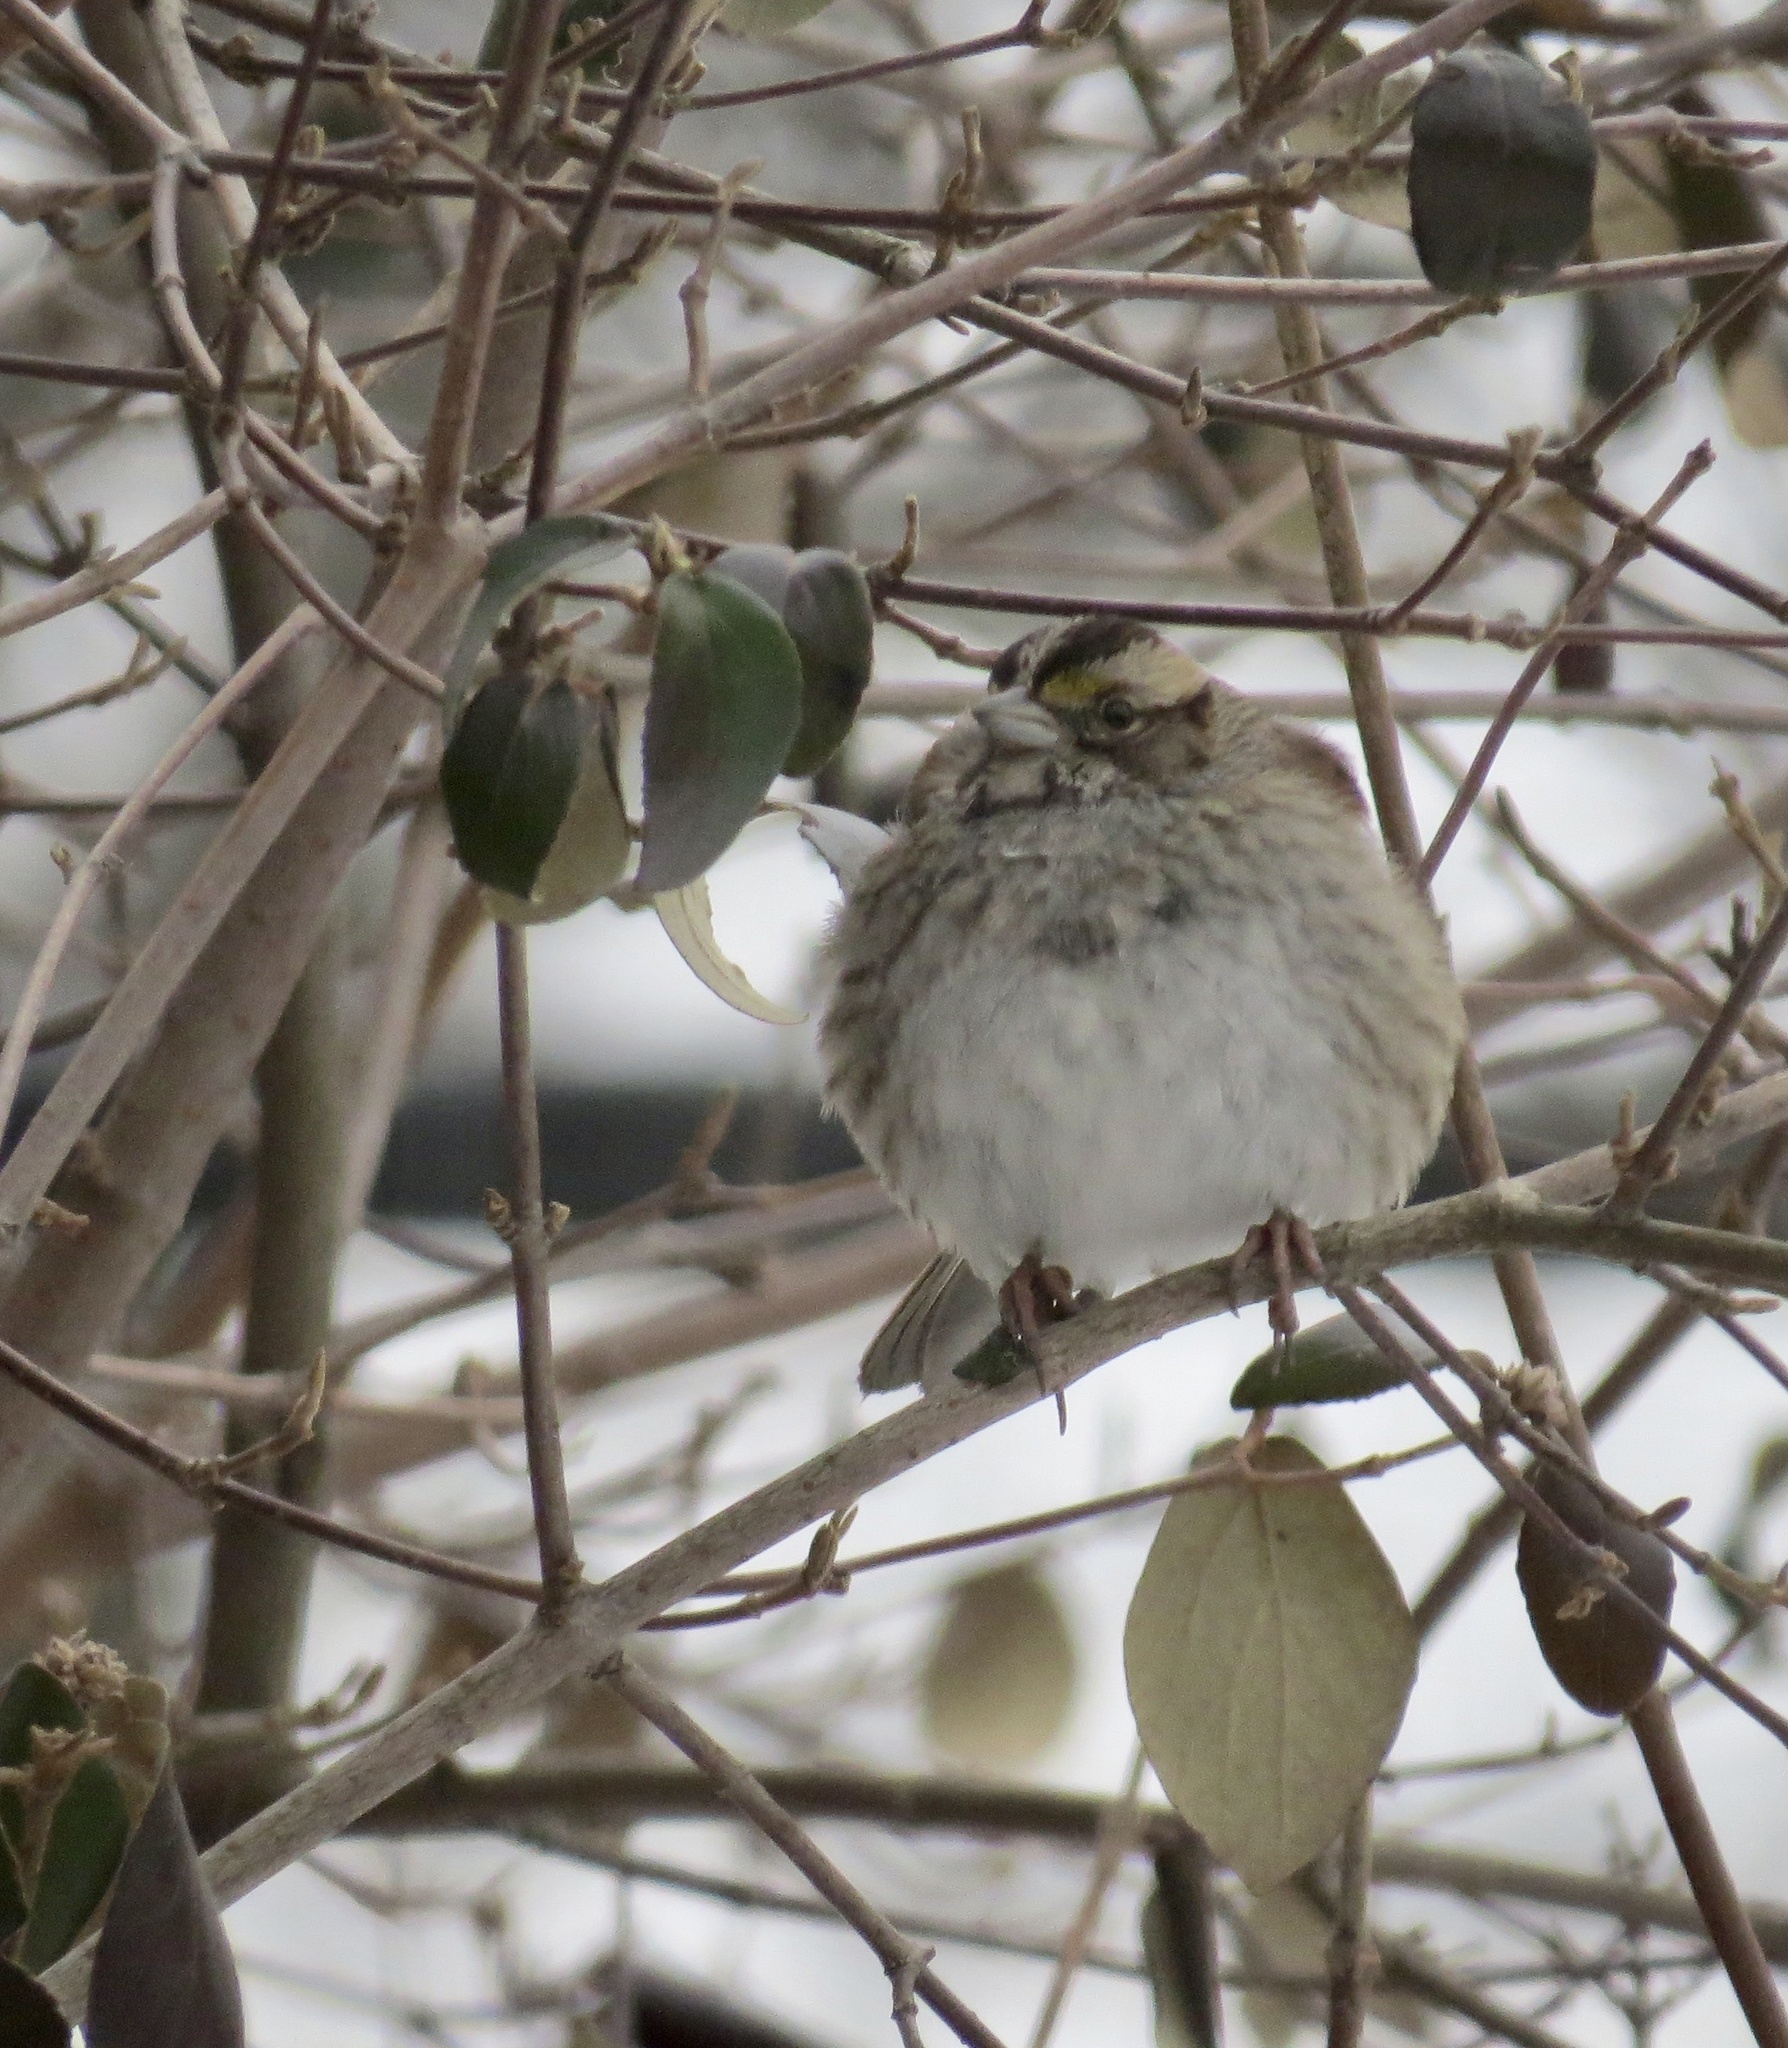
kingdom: Animalia
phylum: Chordata
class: Aves
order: Passeriformes
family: Passerellidae
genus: Zonotrichia
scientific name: Zonotrichia albicollis
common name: White-throated sparrow
